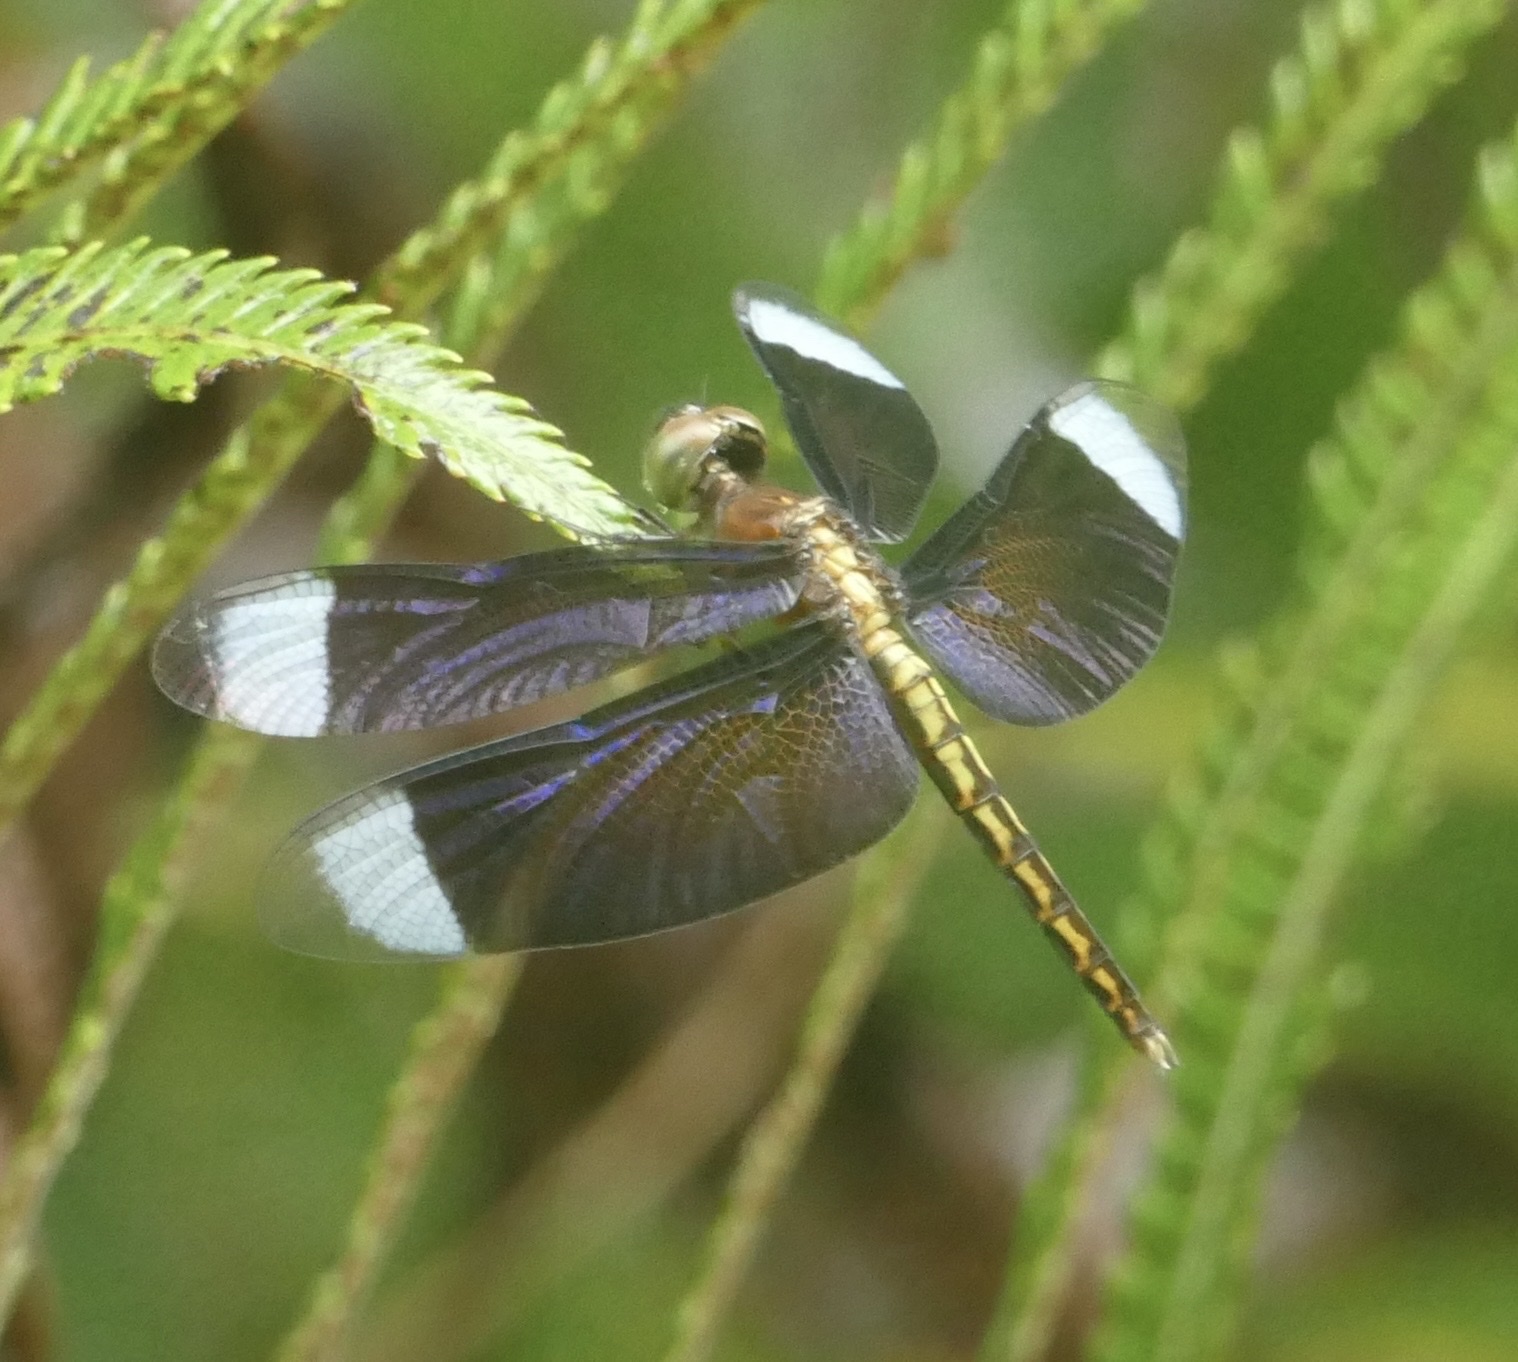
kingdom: Animalia
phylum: Arthropoda
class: Insecta
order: Odonata
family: Libellulidae
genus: Neurothemis
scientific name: Neurothemis decora
